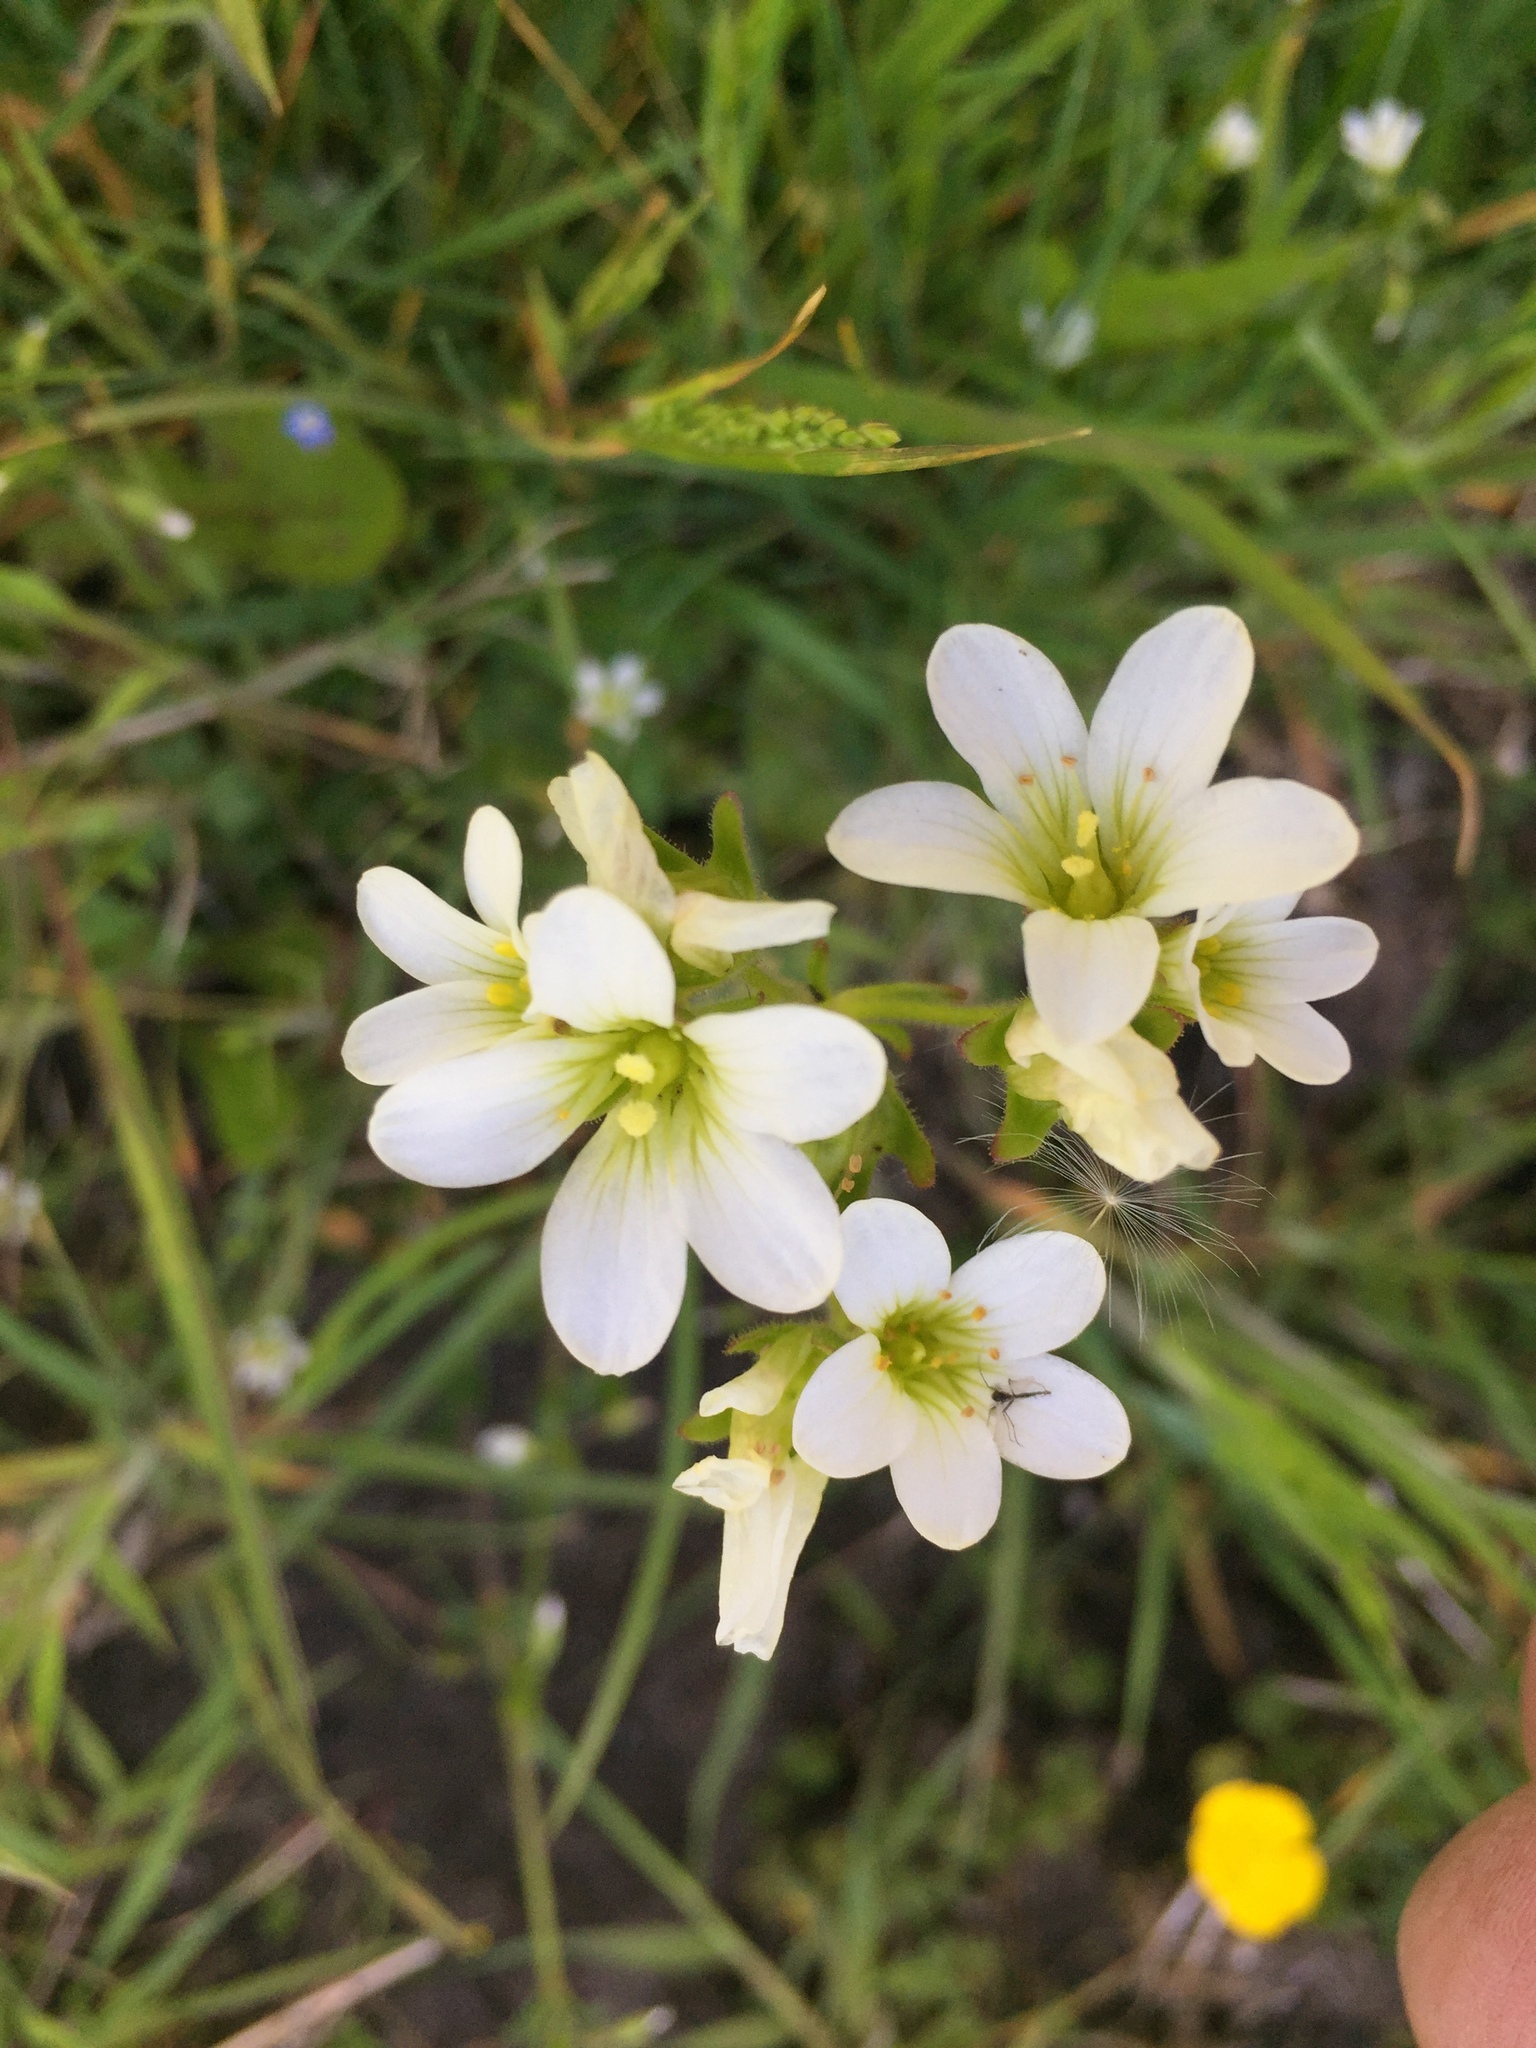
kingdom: Plantae
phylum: Tracheophyta
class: Magnoliopsida
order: Saxifragales
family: Saxifragaceae
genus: Saxifraga
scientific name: Saxifraga granulata
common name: Meadow saxifrage
